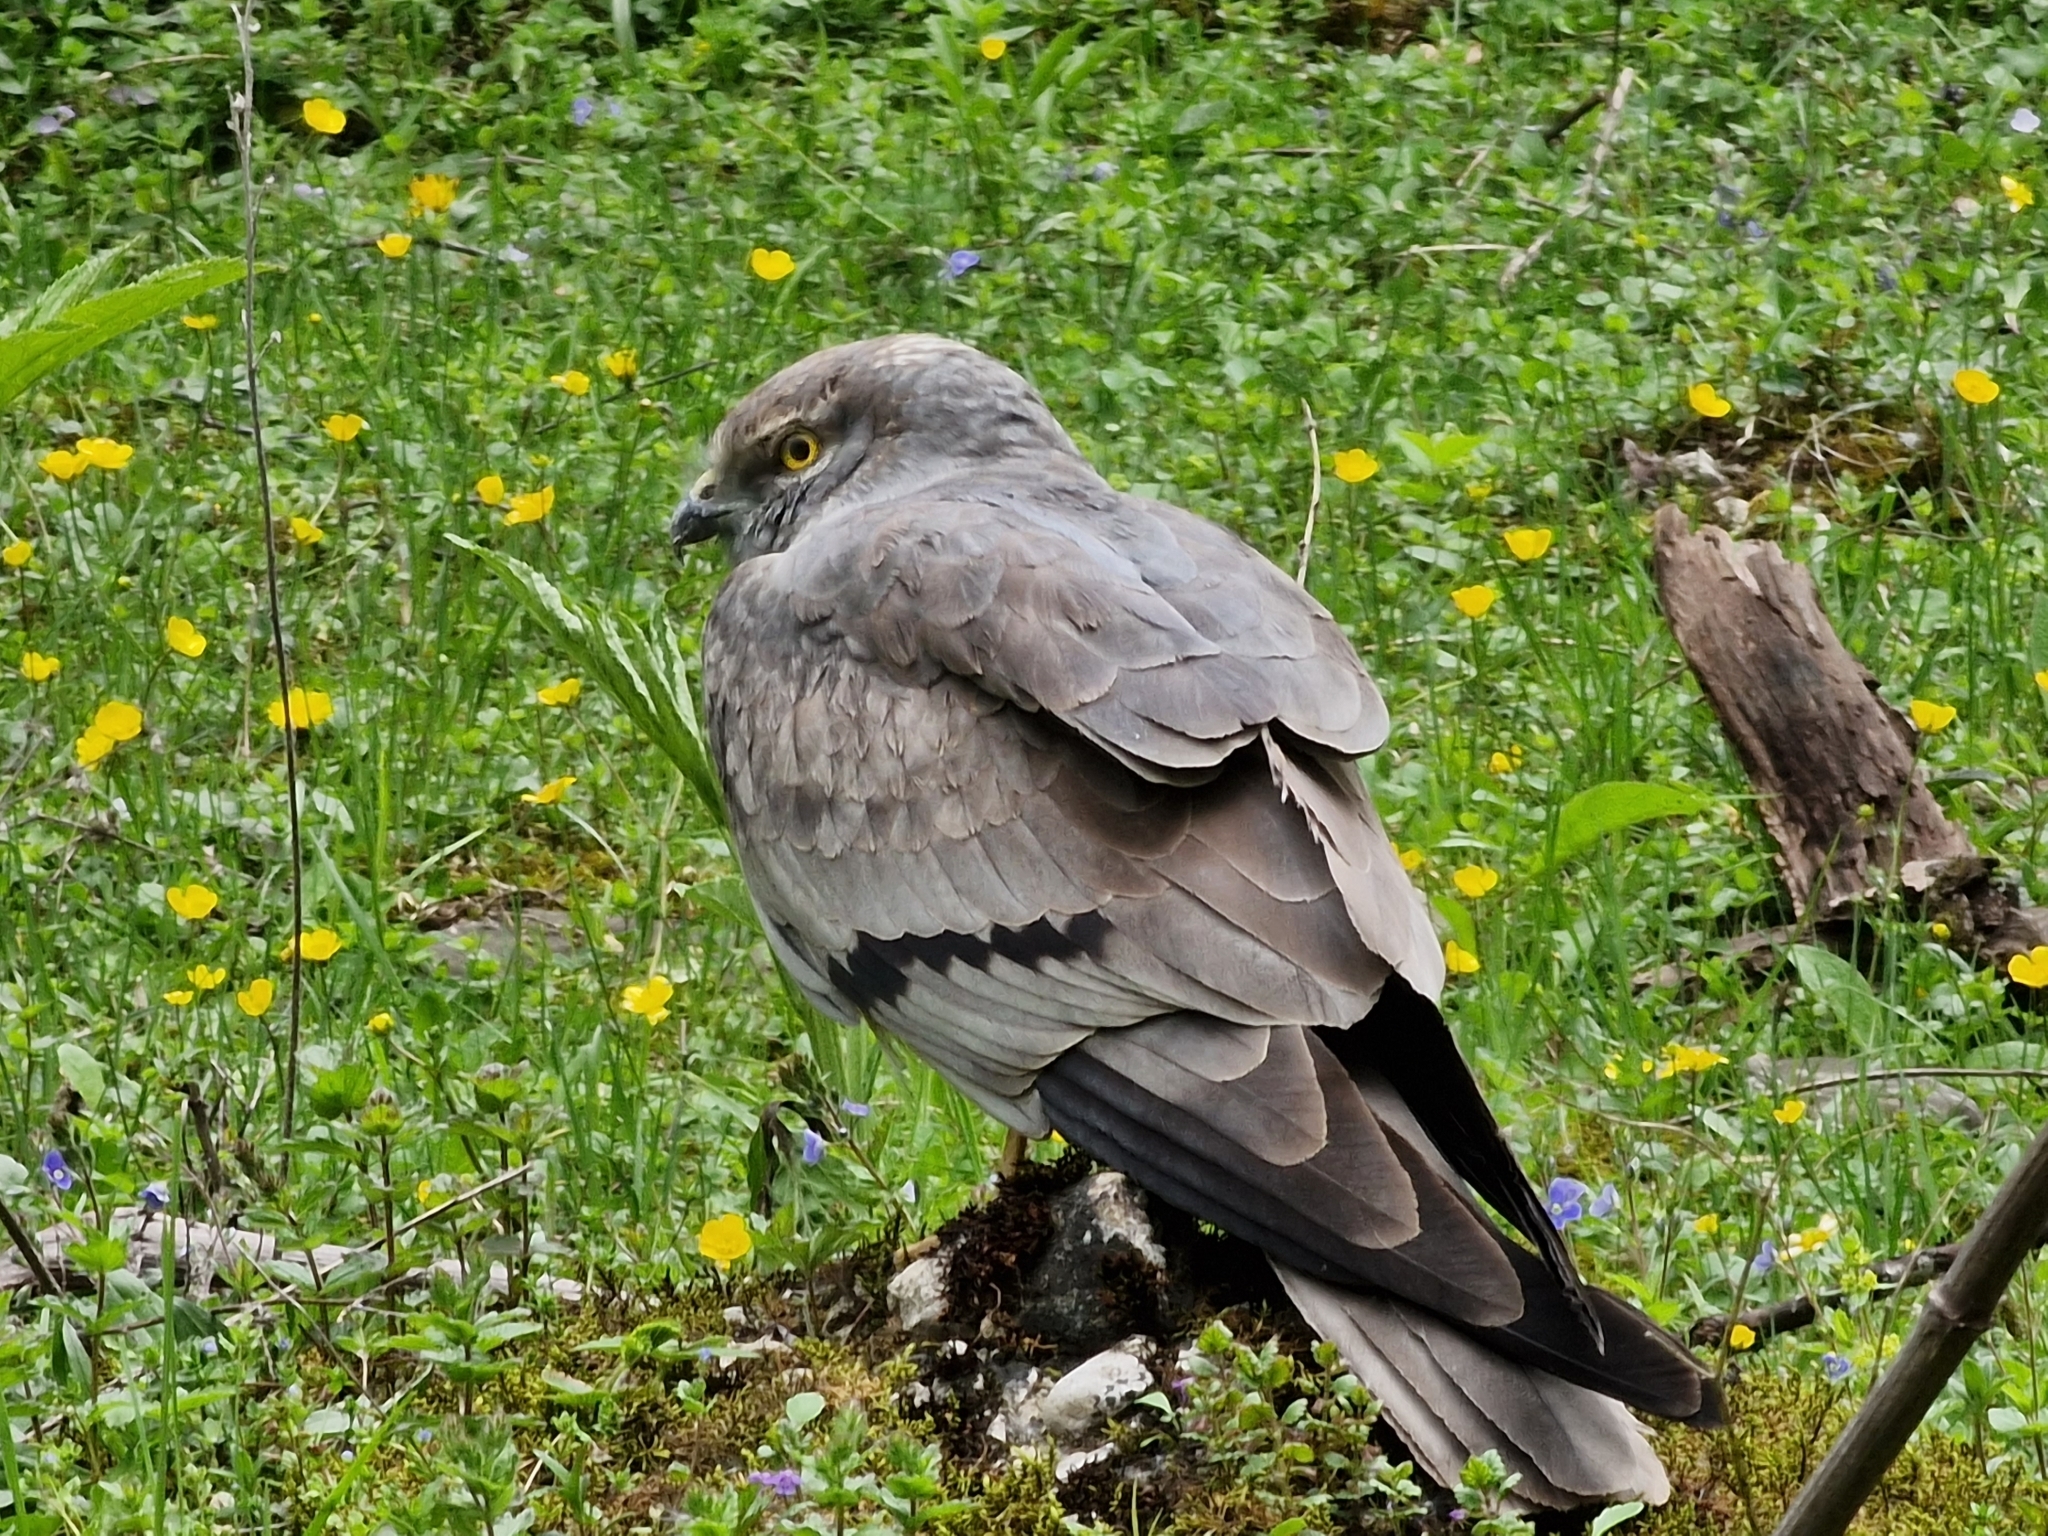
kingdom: Animalia
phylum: Chordata
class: Aves
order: Accipitriformes
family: Accipitridae
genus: Circus
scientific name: Circus pygargus
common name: Montagu's harrier
